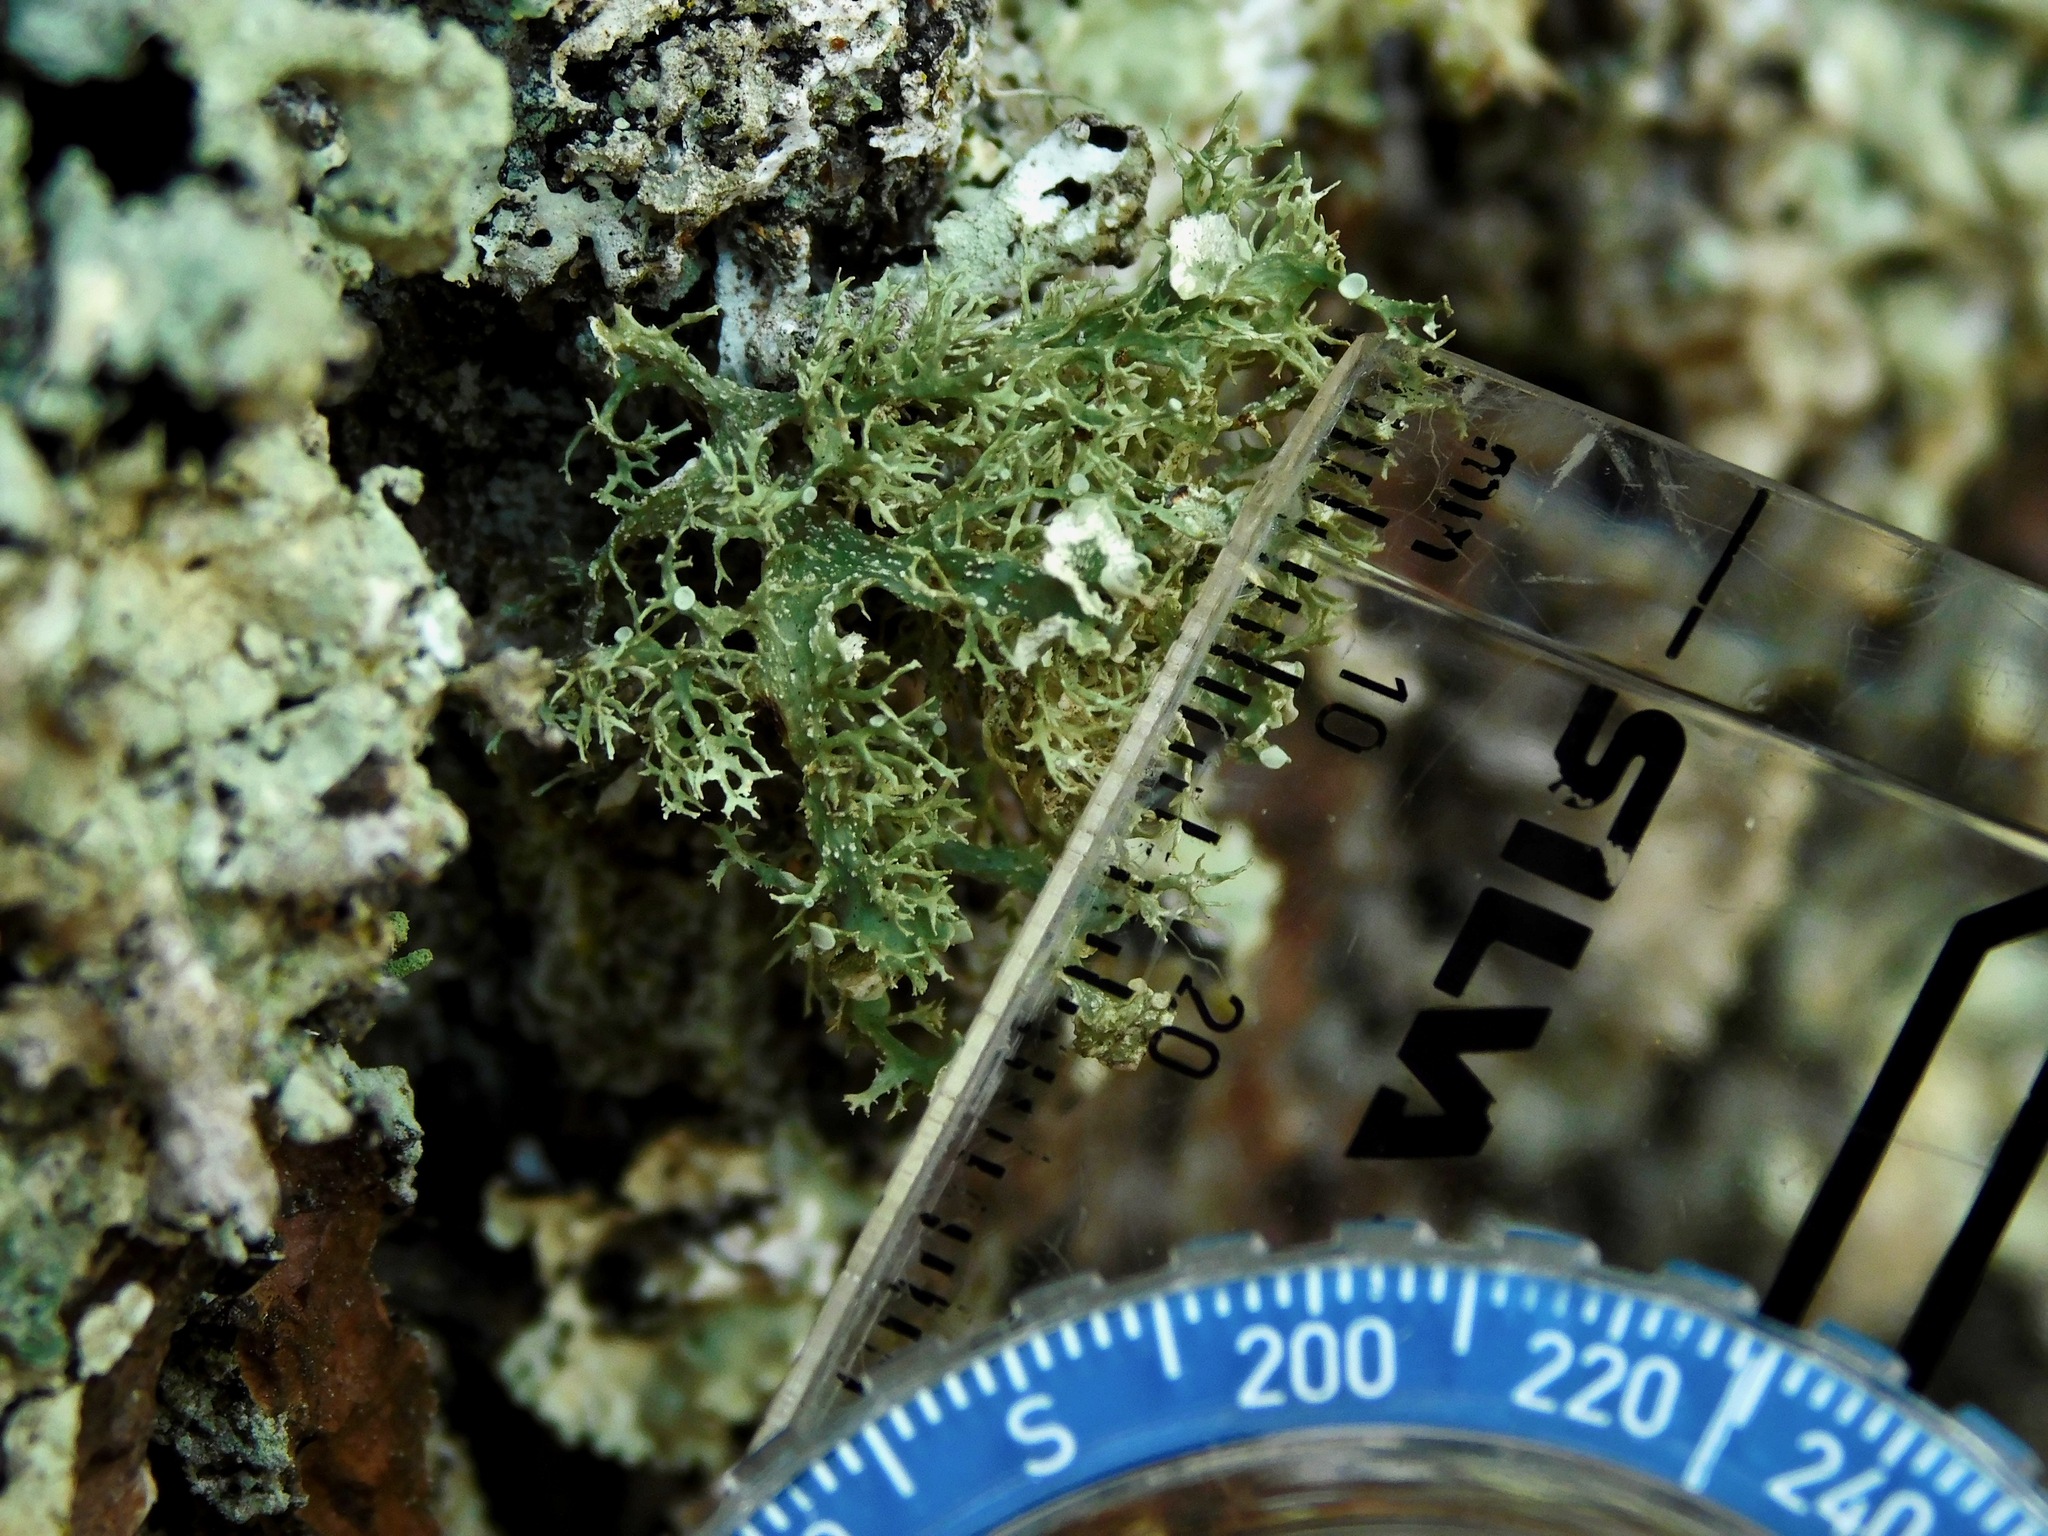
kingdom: Fungi
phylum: Ascomycota
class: Lecanoromycetes
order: Lecanorales
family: Ramalinaceae
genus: Ramalina
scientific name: Ramalina culbersoniorum
